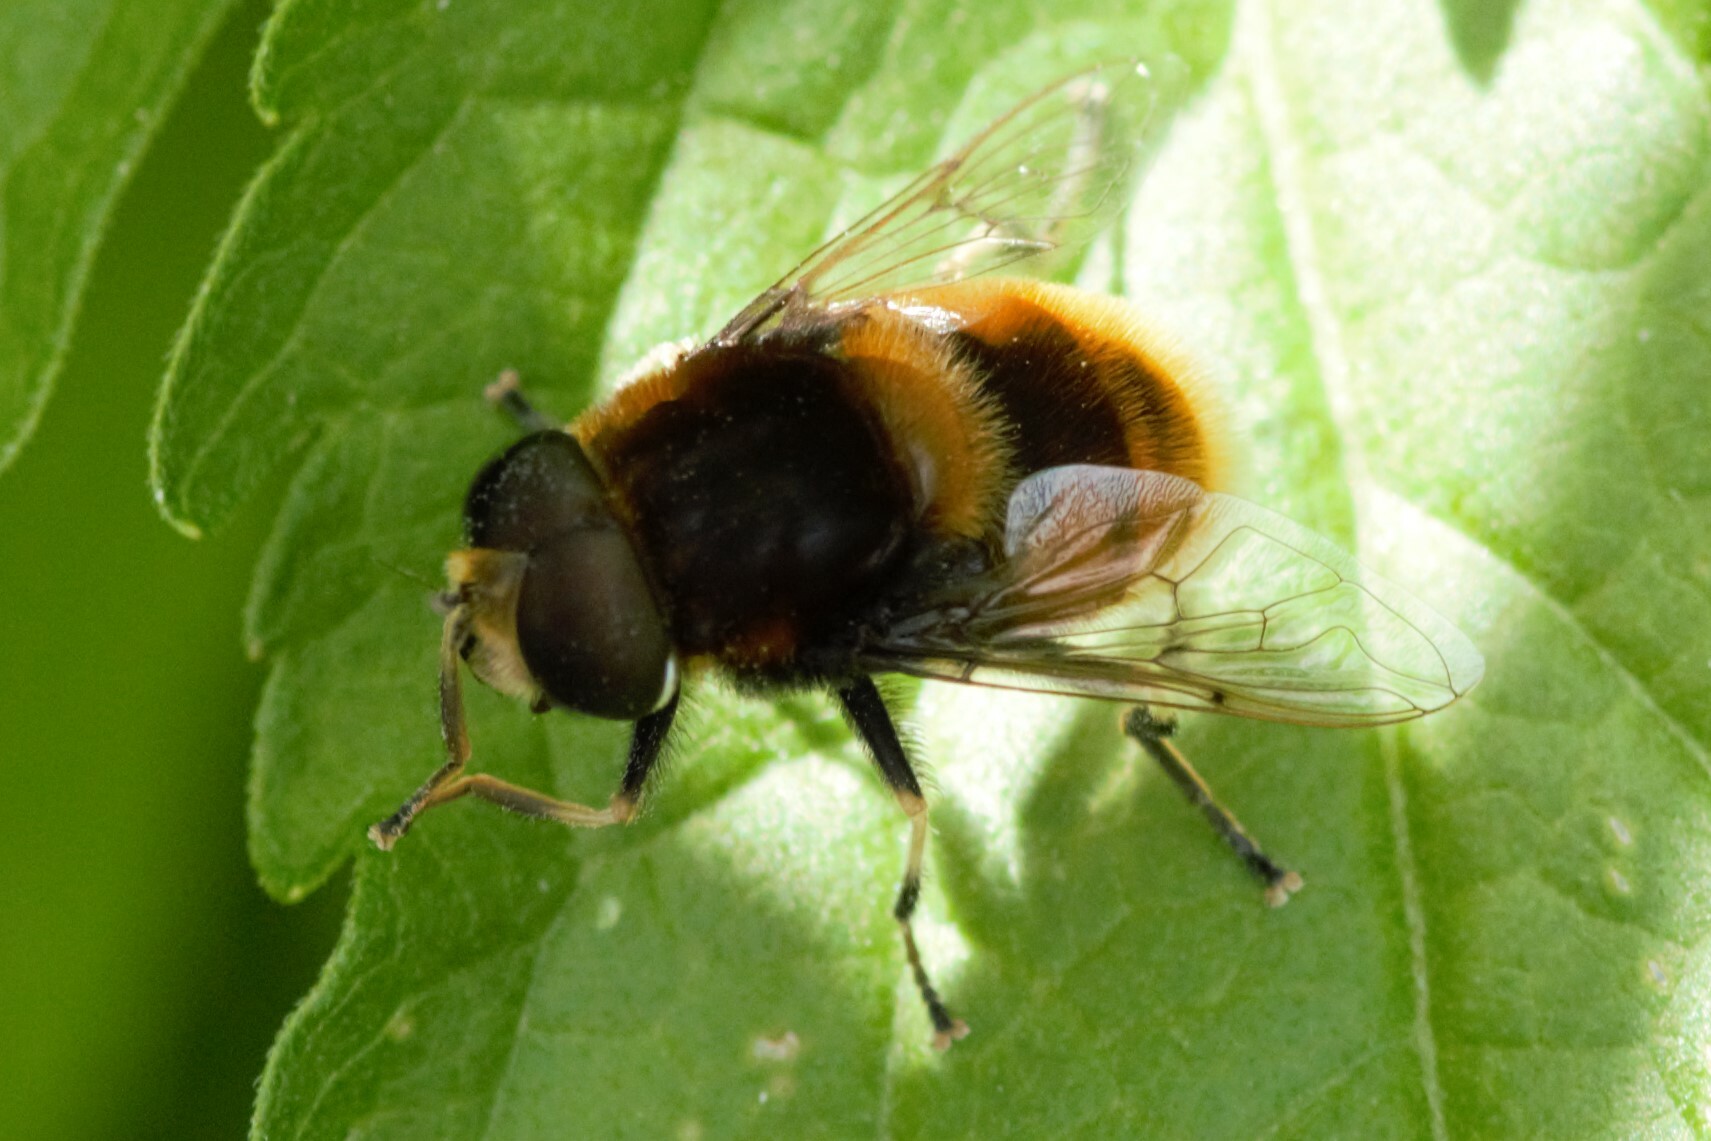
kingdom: Animalia
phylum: Arthropoda
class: Insecta
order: Diptera
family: Syrphidae
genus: Eristalis
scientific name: Eristalis intricaria
